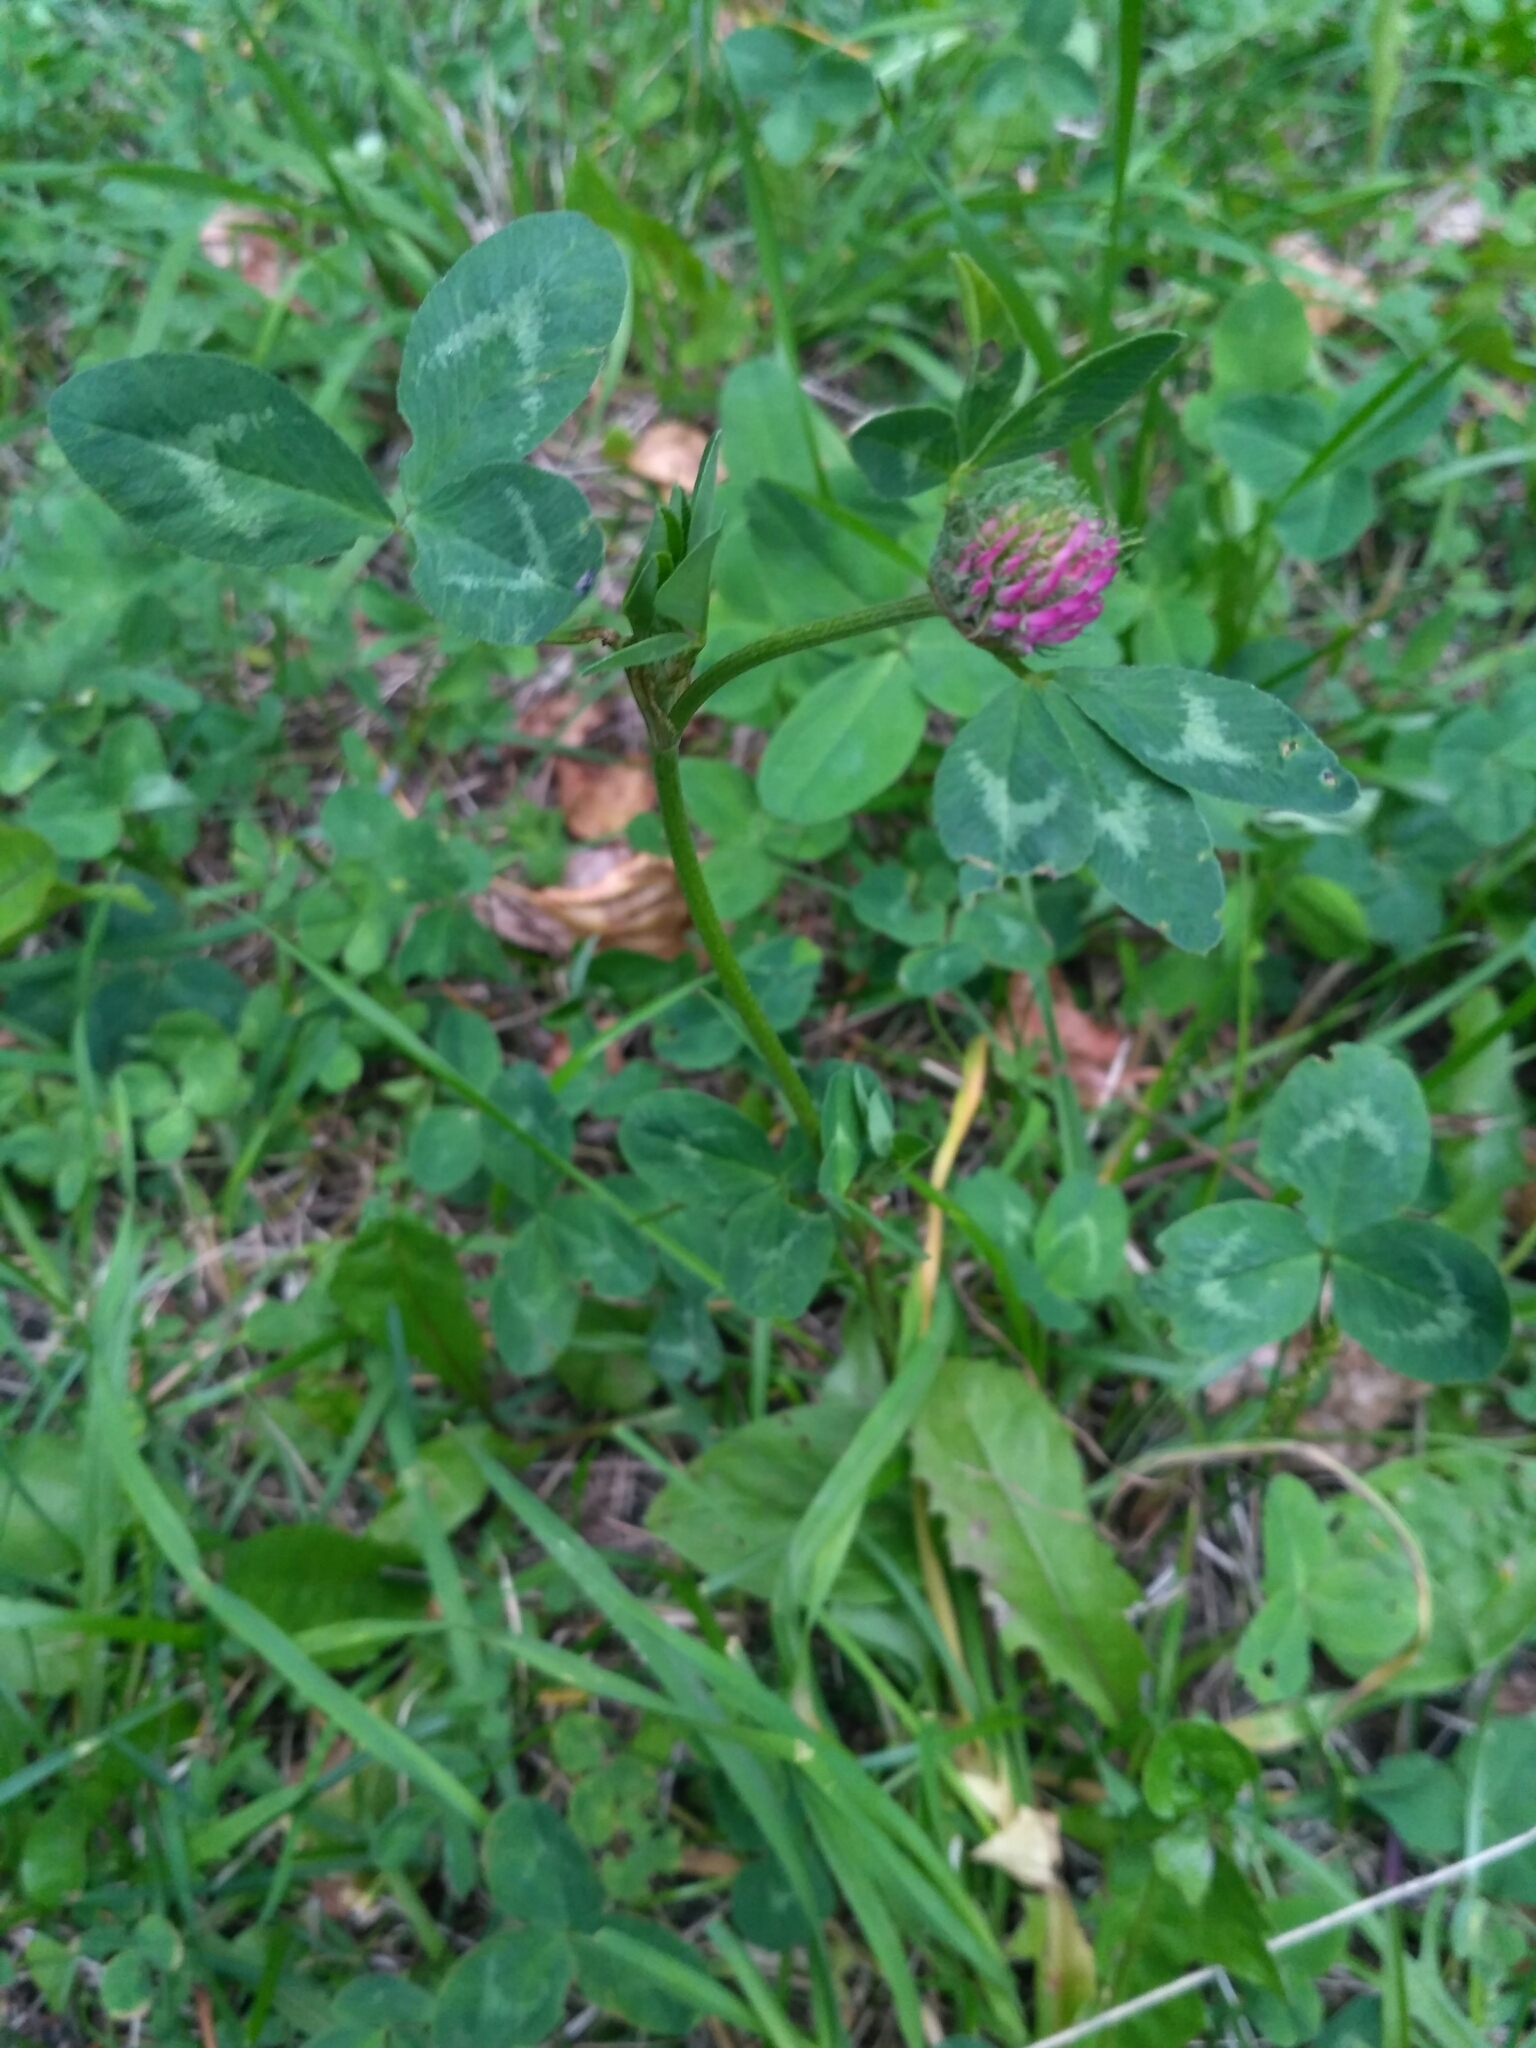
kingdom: Plantae
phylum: Tracheophyta
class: Magnoliopsida
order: Fabales
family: Fabaceae
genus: Trifolium
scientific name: Trifolium pratense
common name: Red clover
